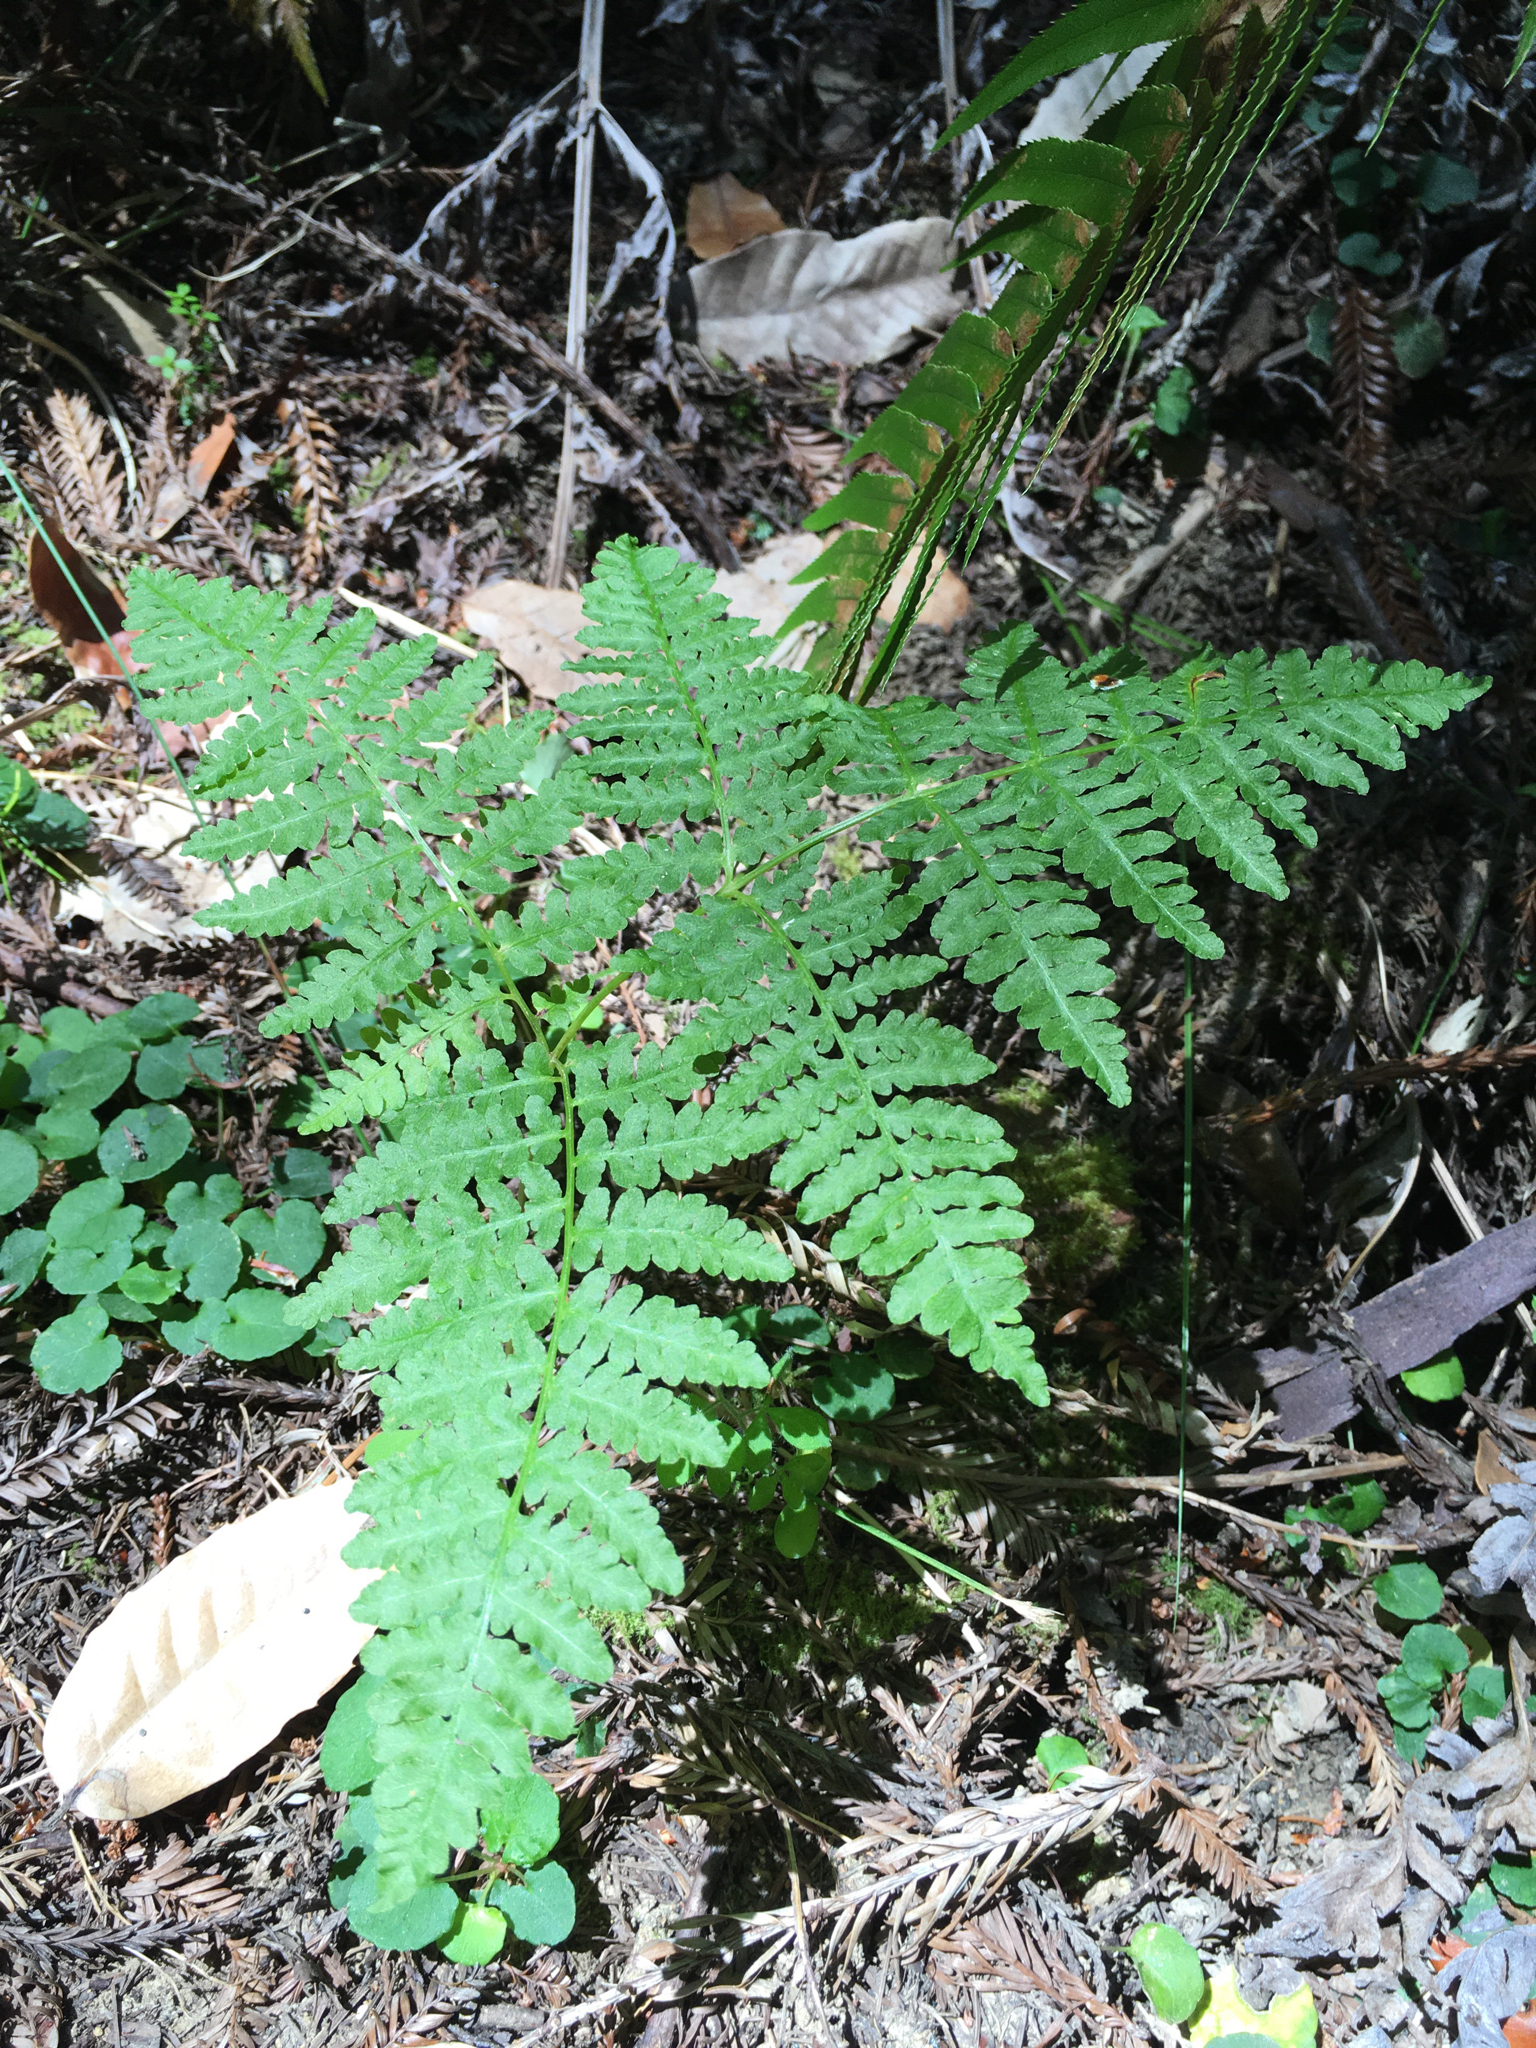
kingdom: Plantae
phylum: Tracheophyta
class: Polypodiopsida
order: Polypodiales
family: Dennstaedtiaceae
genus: Pteridium
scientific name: Pteridium aquilinum
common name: Bracken
